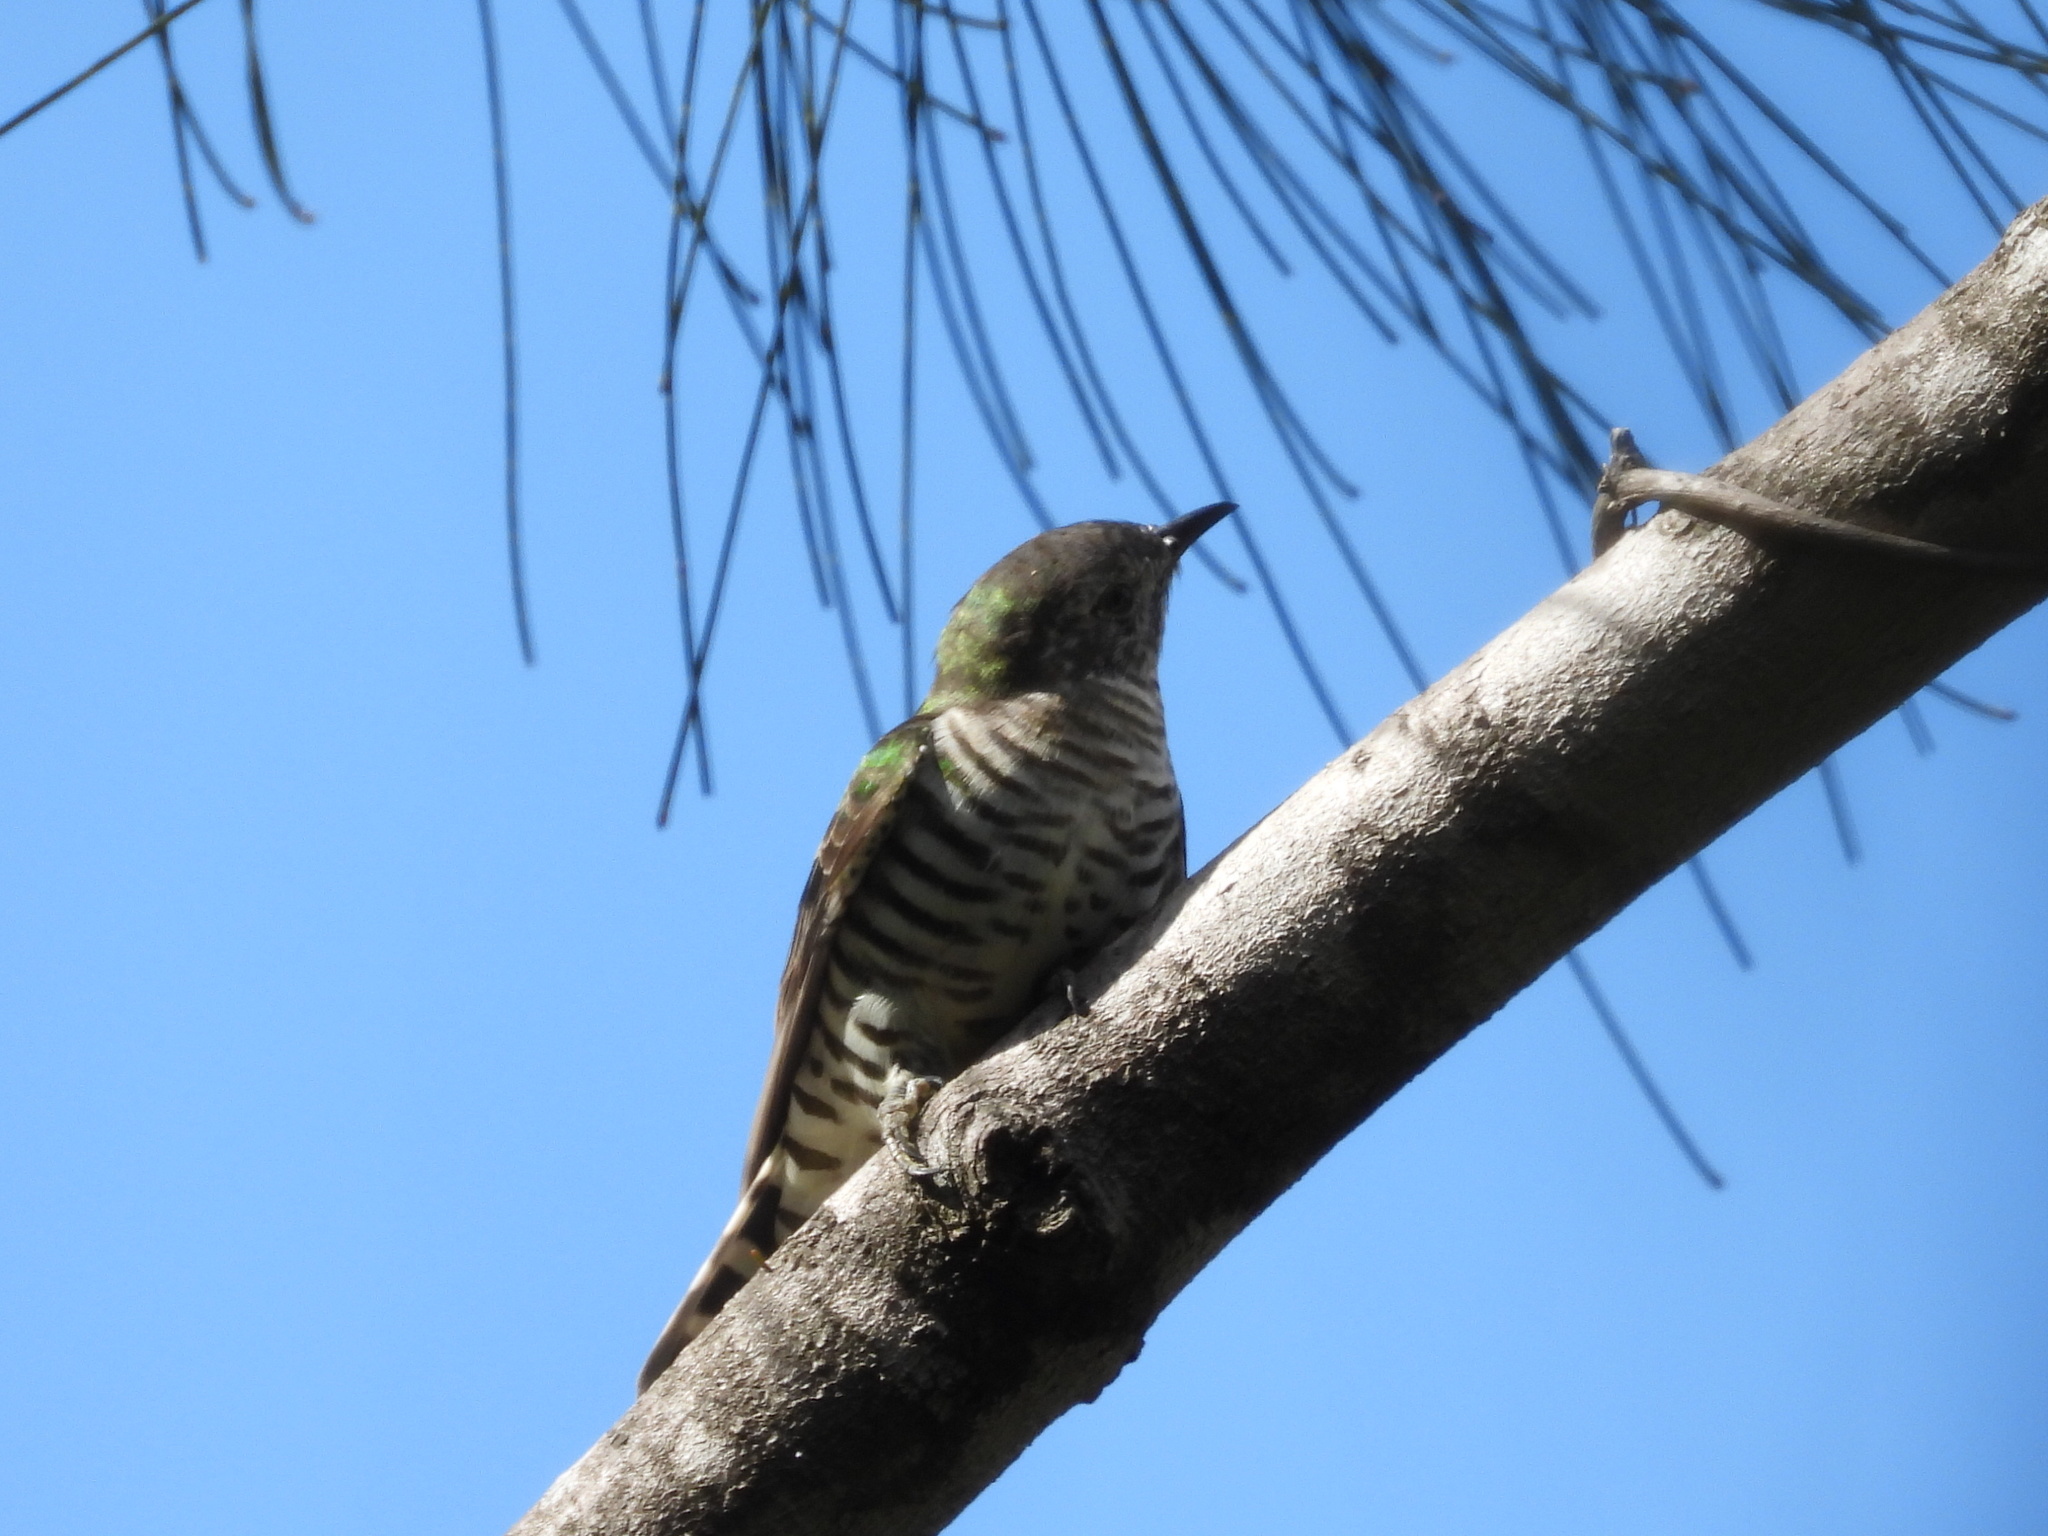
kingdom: Animalia
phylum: Chordata
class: Aves
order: Cuculiformes
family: Cuculidae
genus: Chrysococcyx
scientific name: Chrysococcyx lucidus
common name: Shining bronze cuckoo
